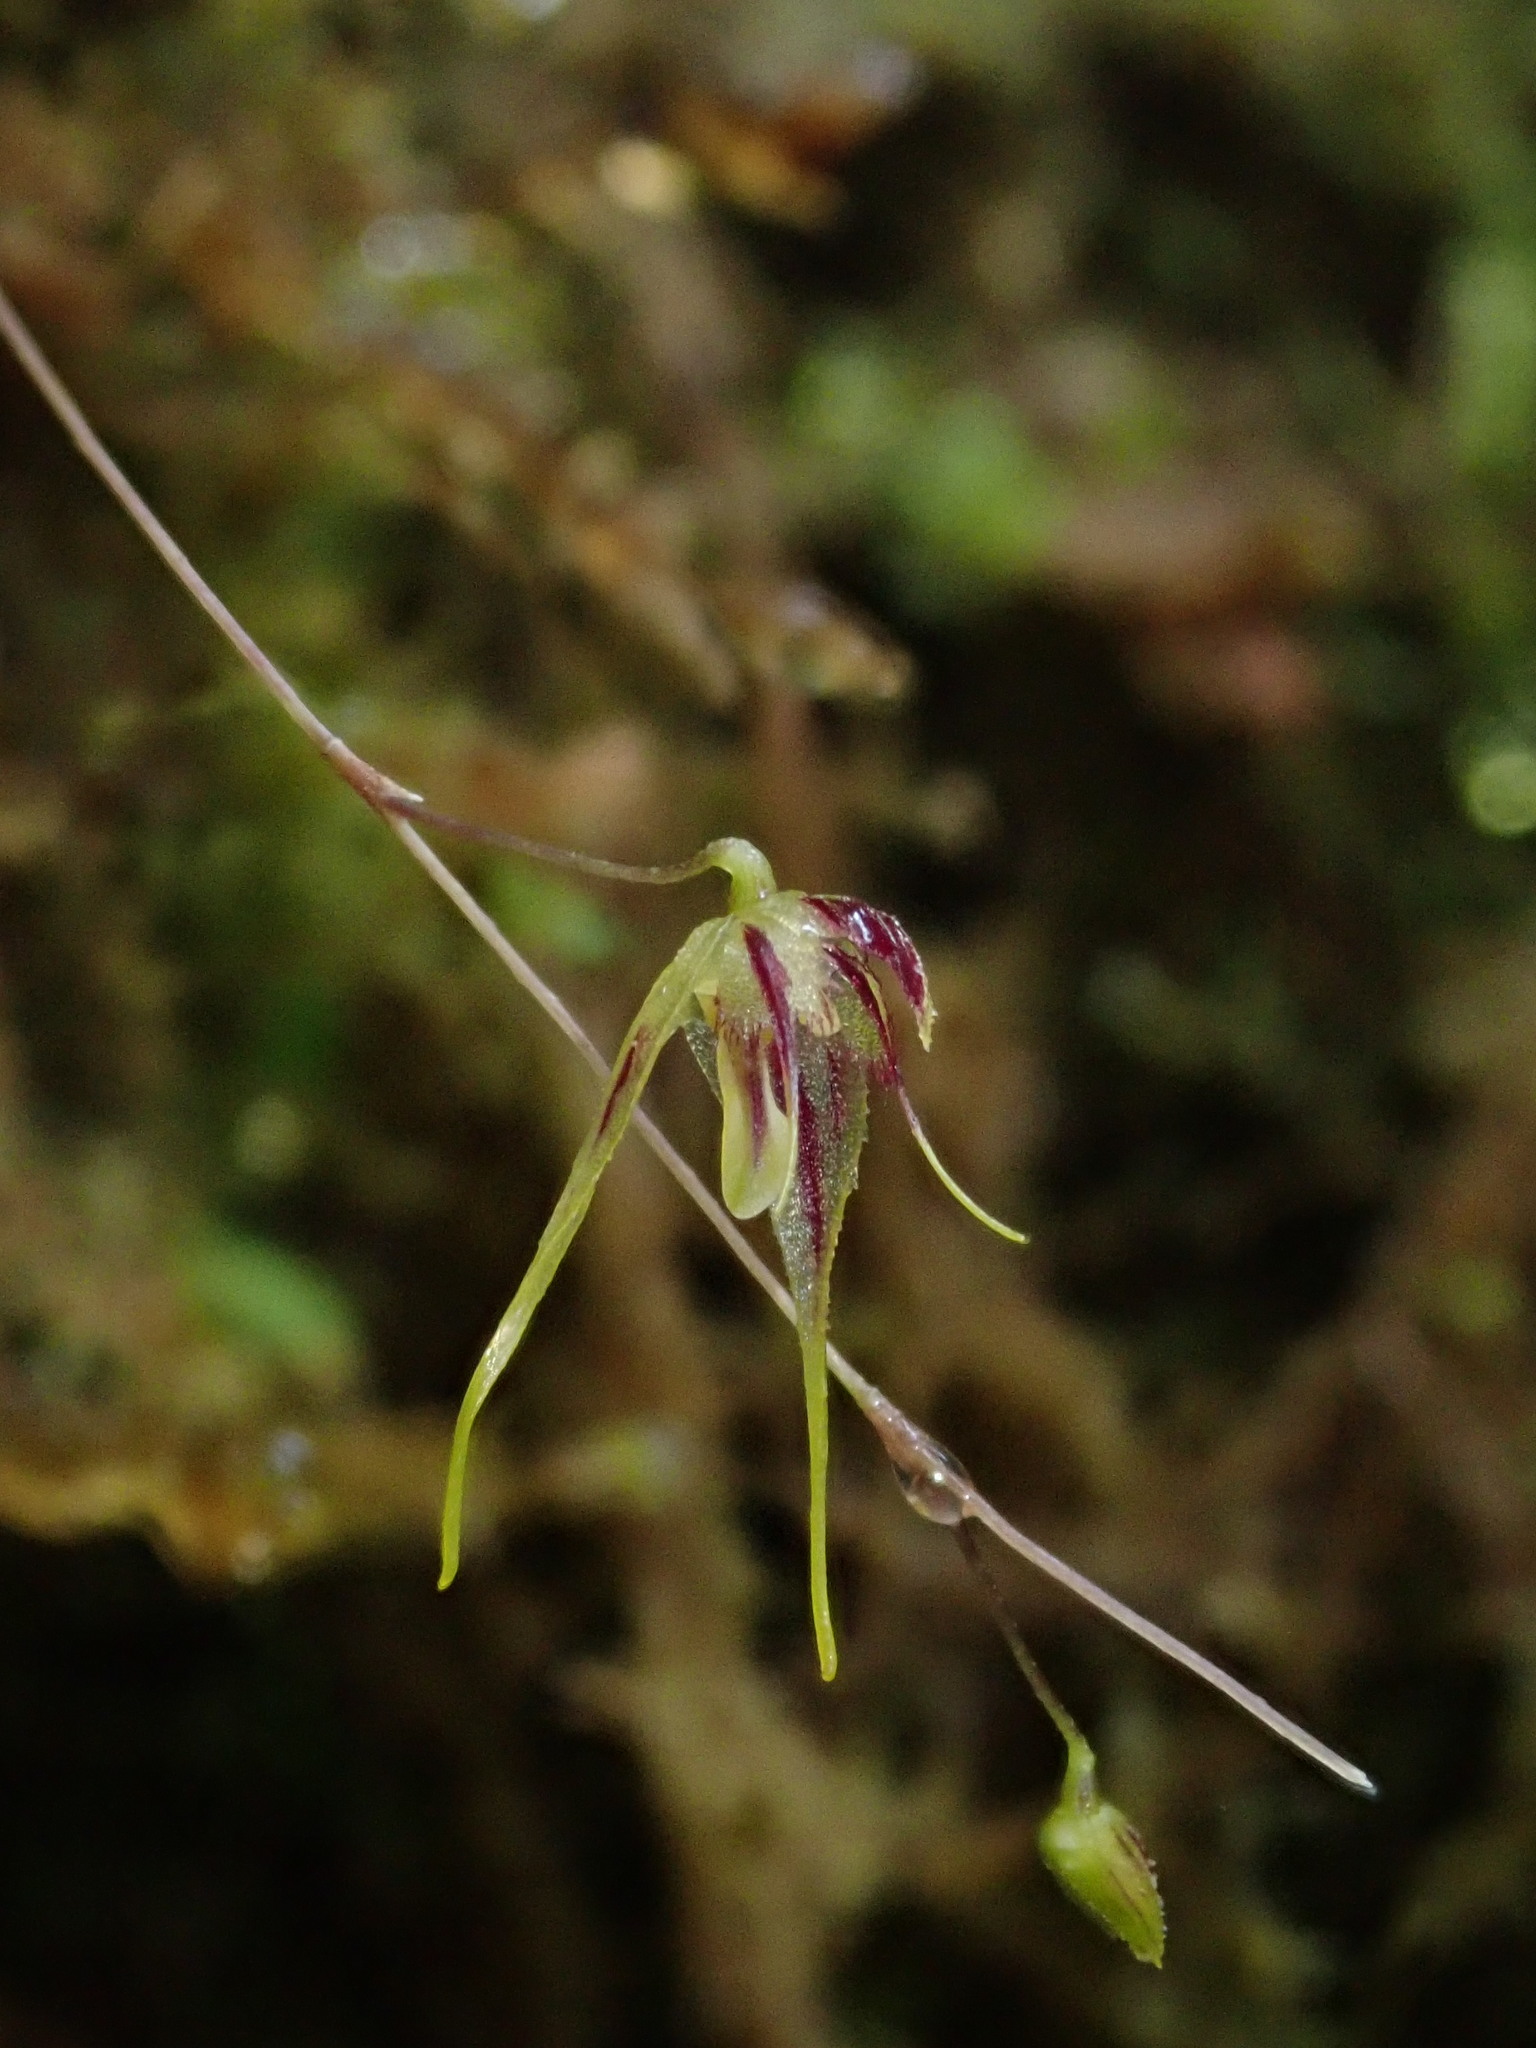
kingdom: Plantae
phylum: Tracheophyta
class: Liliopsida
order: Asparagales
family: Orchidaceae
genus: Muscarella
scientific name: Muscarella zephyrina
